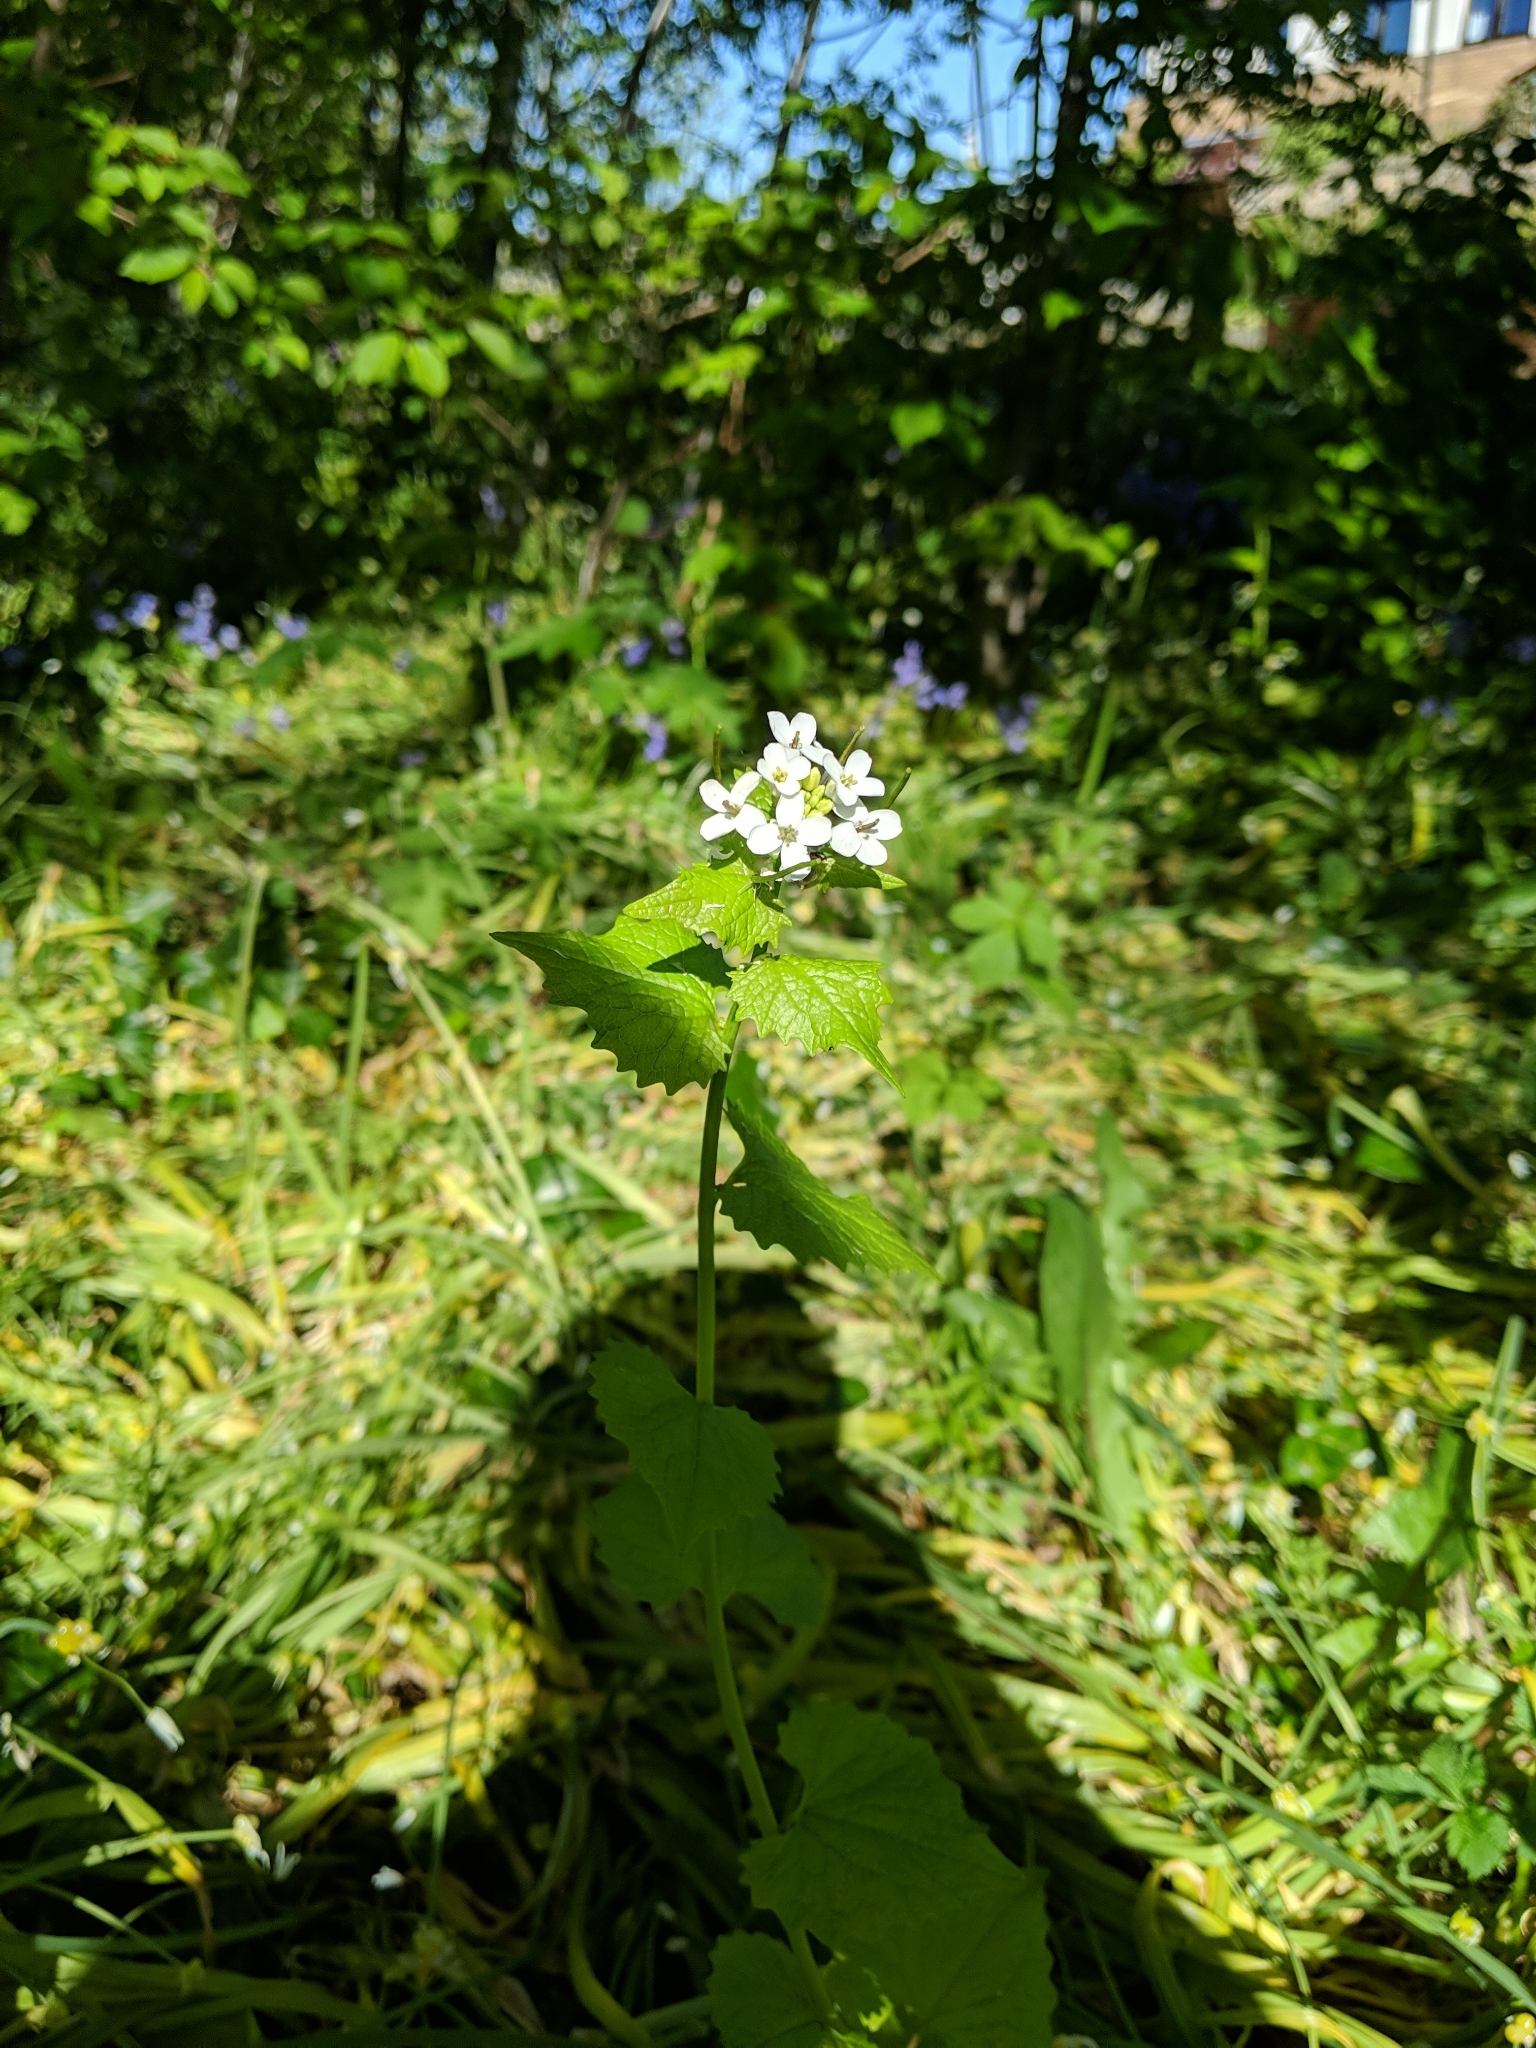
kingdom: Plantae
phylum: Tracheophyta
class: Magnoliopsida
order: Brassicales
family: Brassicaceae
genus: Alliaria
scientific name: Alliaria petiolata
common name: Garlic mustard
